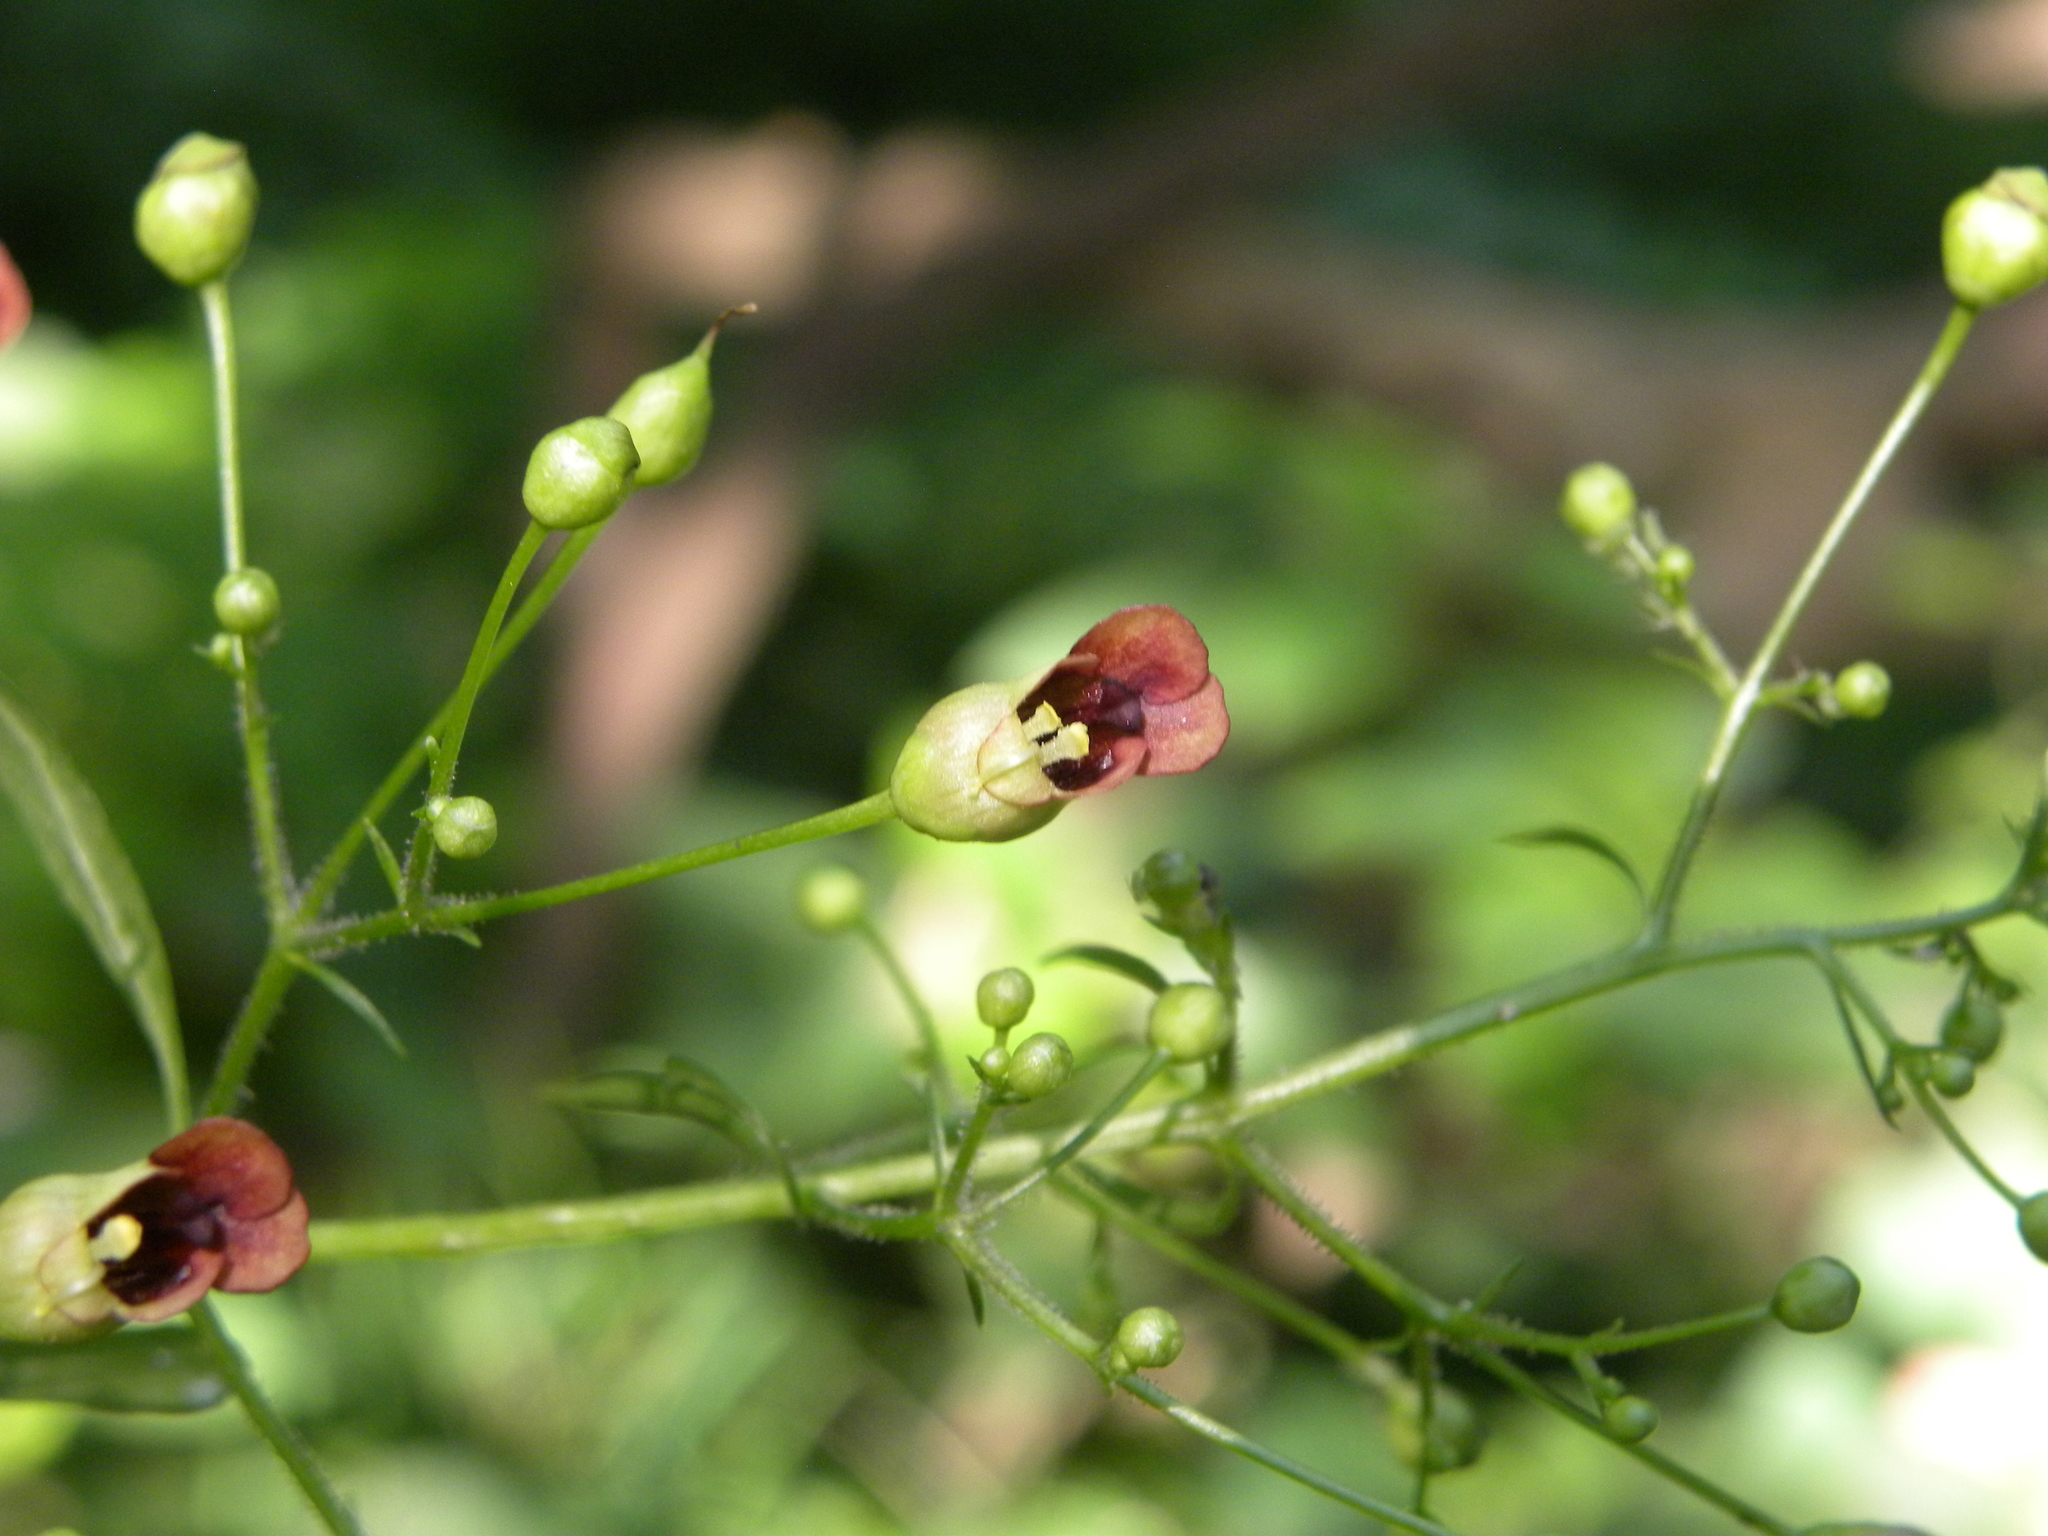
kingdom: Plantae
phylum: Tracheophyta
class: Magnoliopsida
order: Lamiales
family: Scrophulariaceae
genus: Scrophularia
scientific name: Scrophularia marilandica
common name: Eastern figwort
